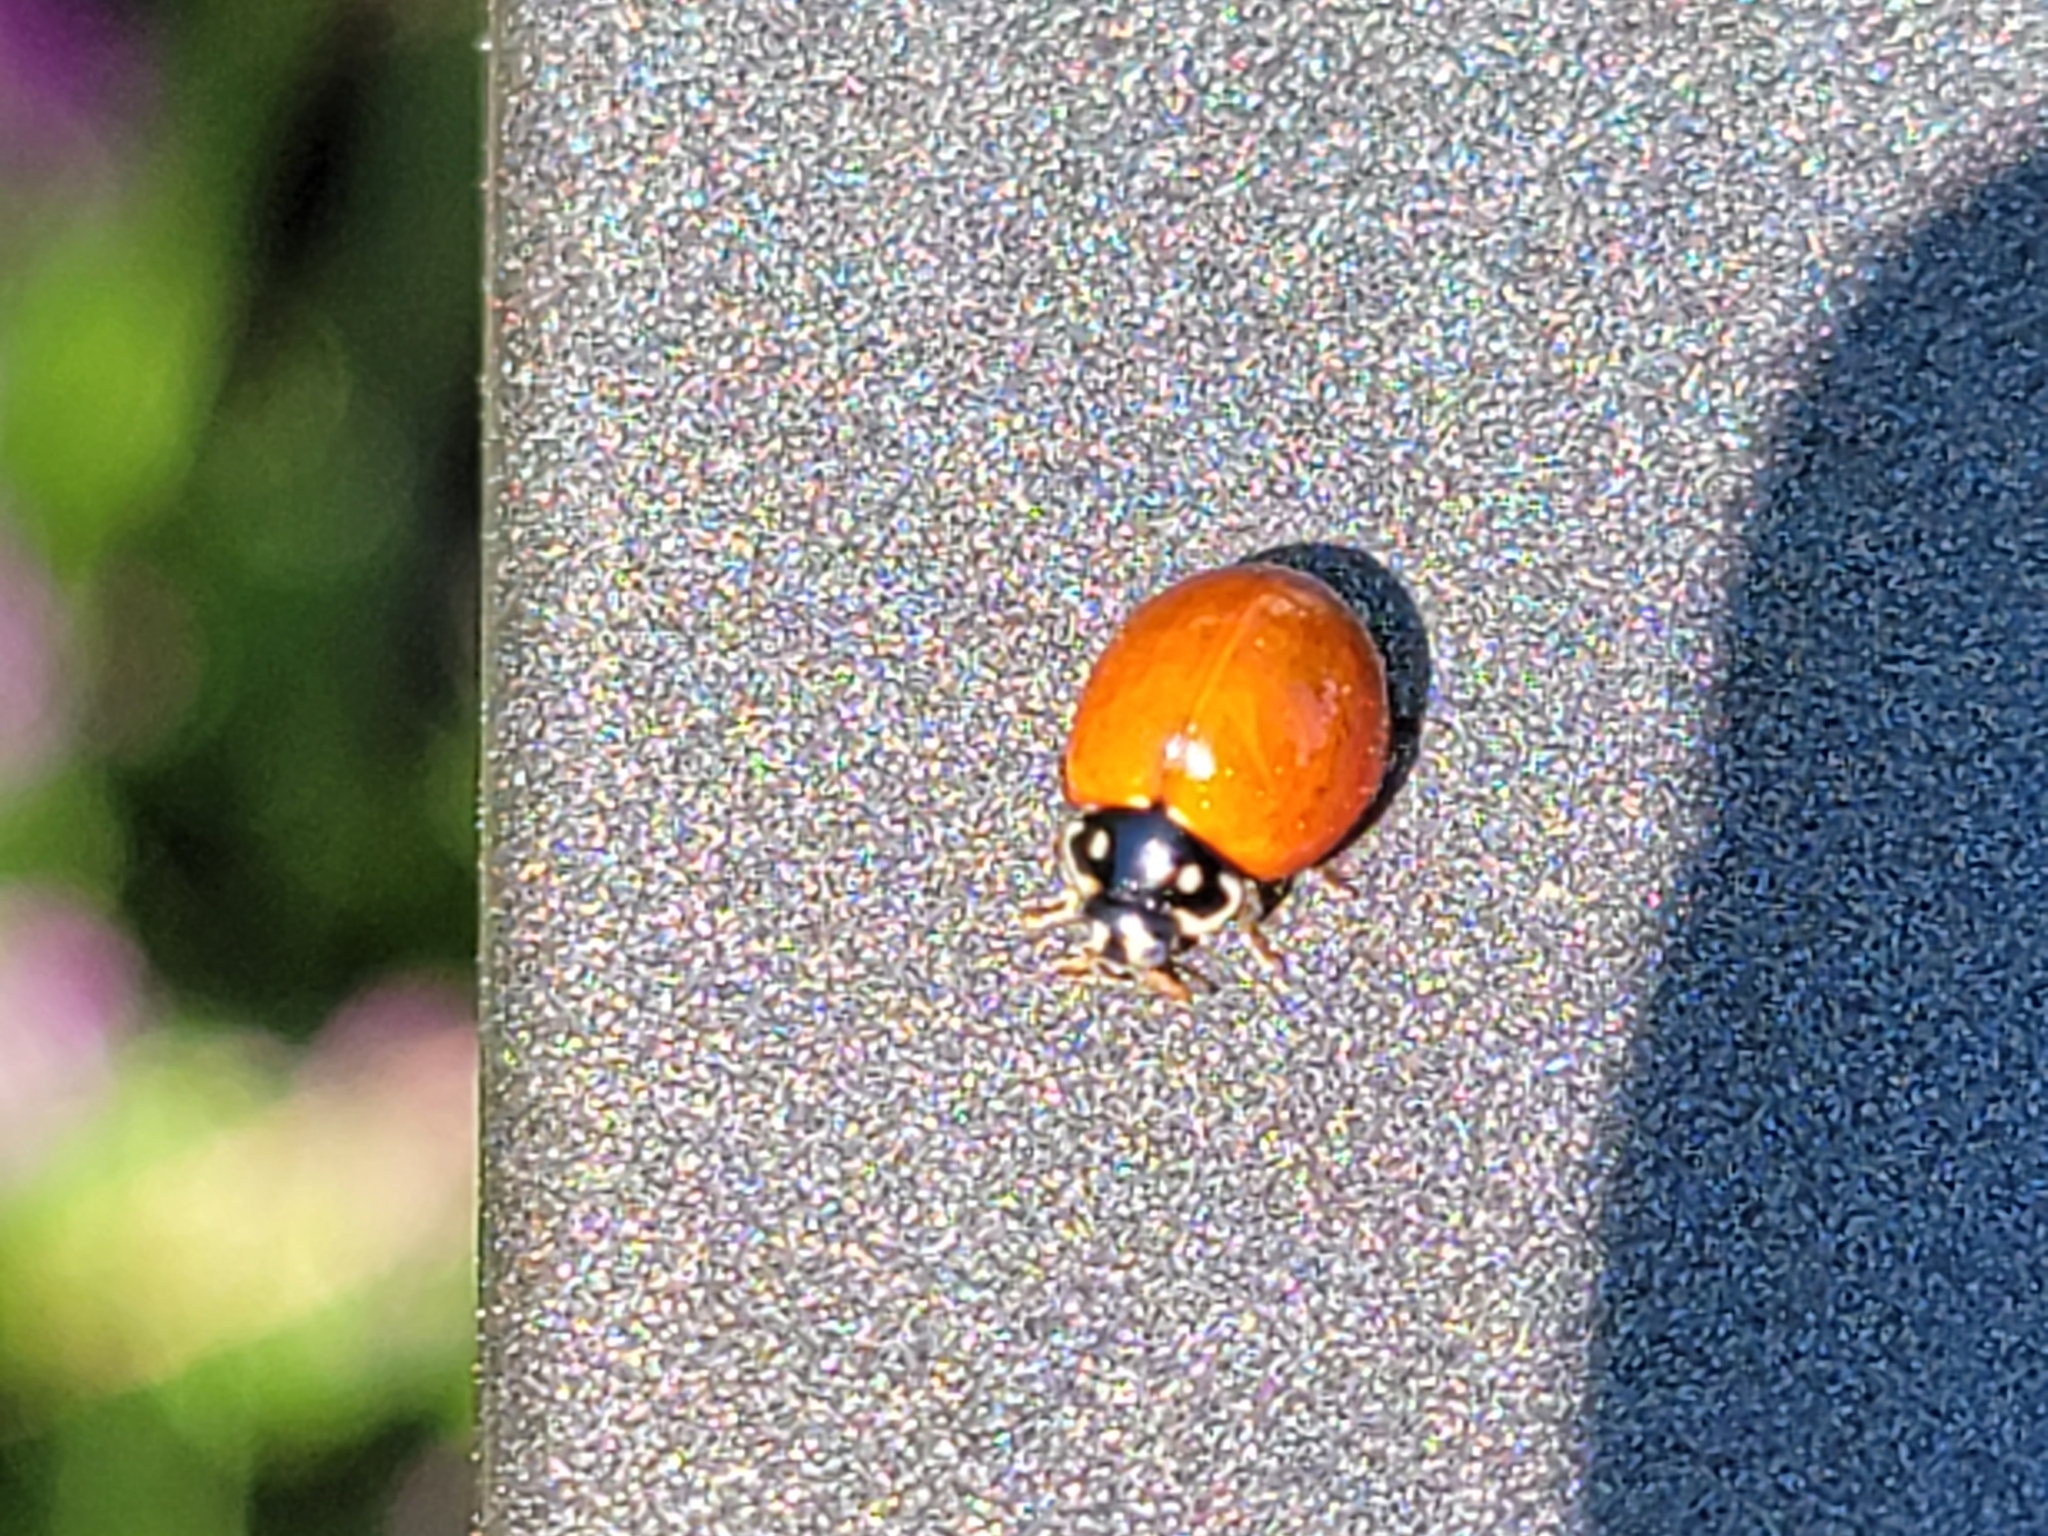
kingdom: Animalia
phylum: Arthropoda
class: Insecta
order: Coleoptera
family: Coccinellidae
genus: Cycloneda
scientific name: Cycloneda sanguinea
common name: Ladybird beetle
